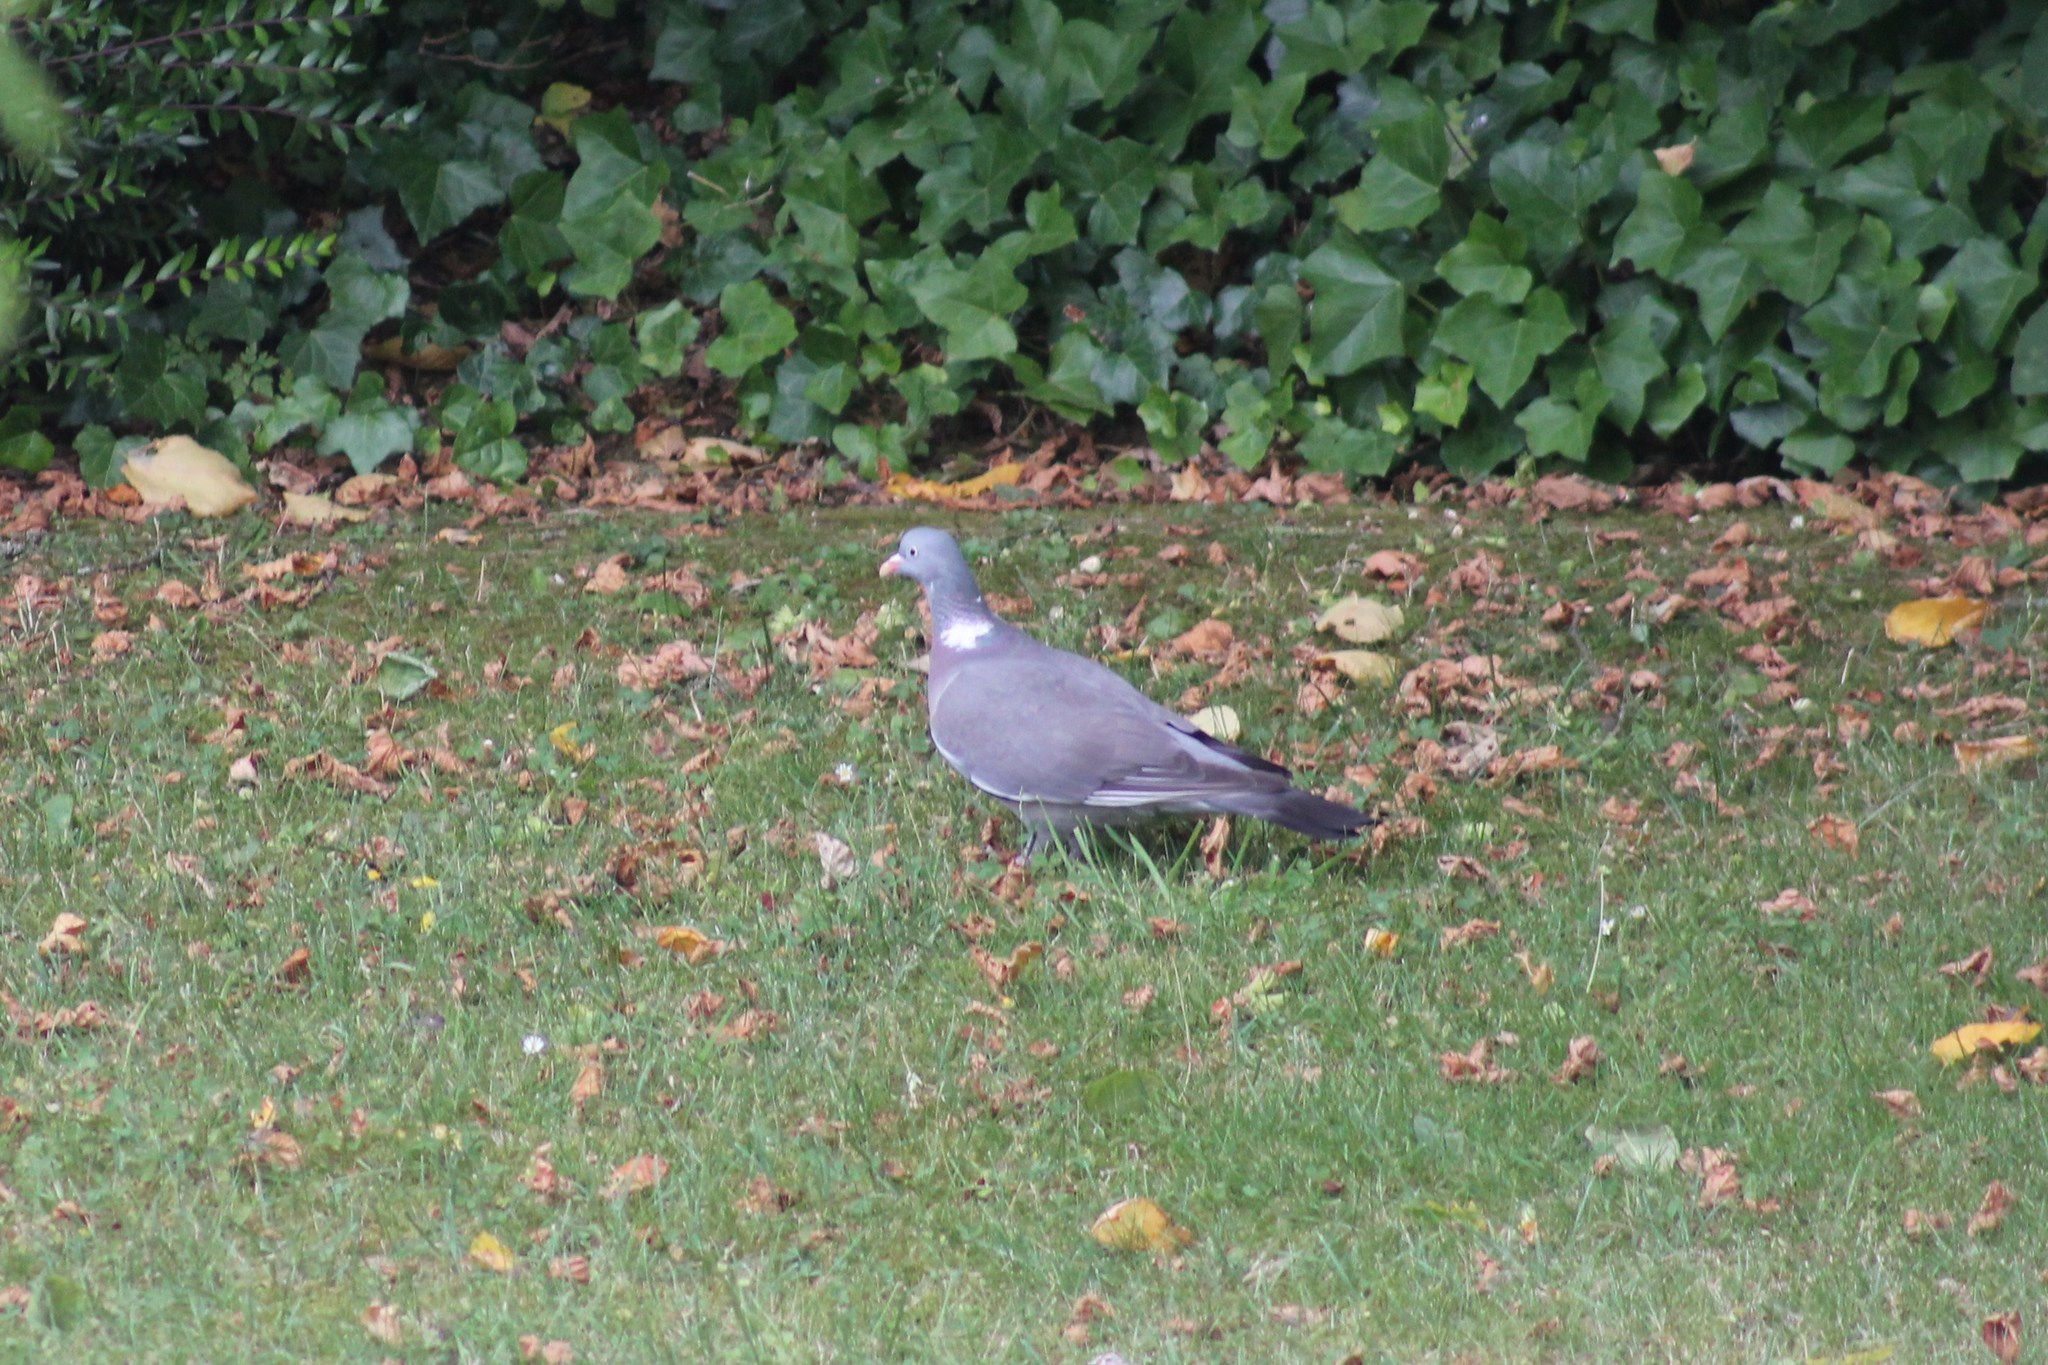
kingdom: Animalia
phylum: Chordata
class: Aves
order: Columbiformes
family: Columbidae
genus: Columba
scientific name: Columba palumbus
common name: Common wood pigeon
